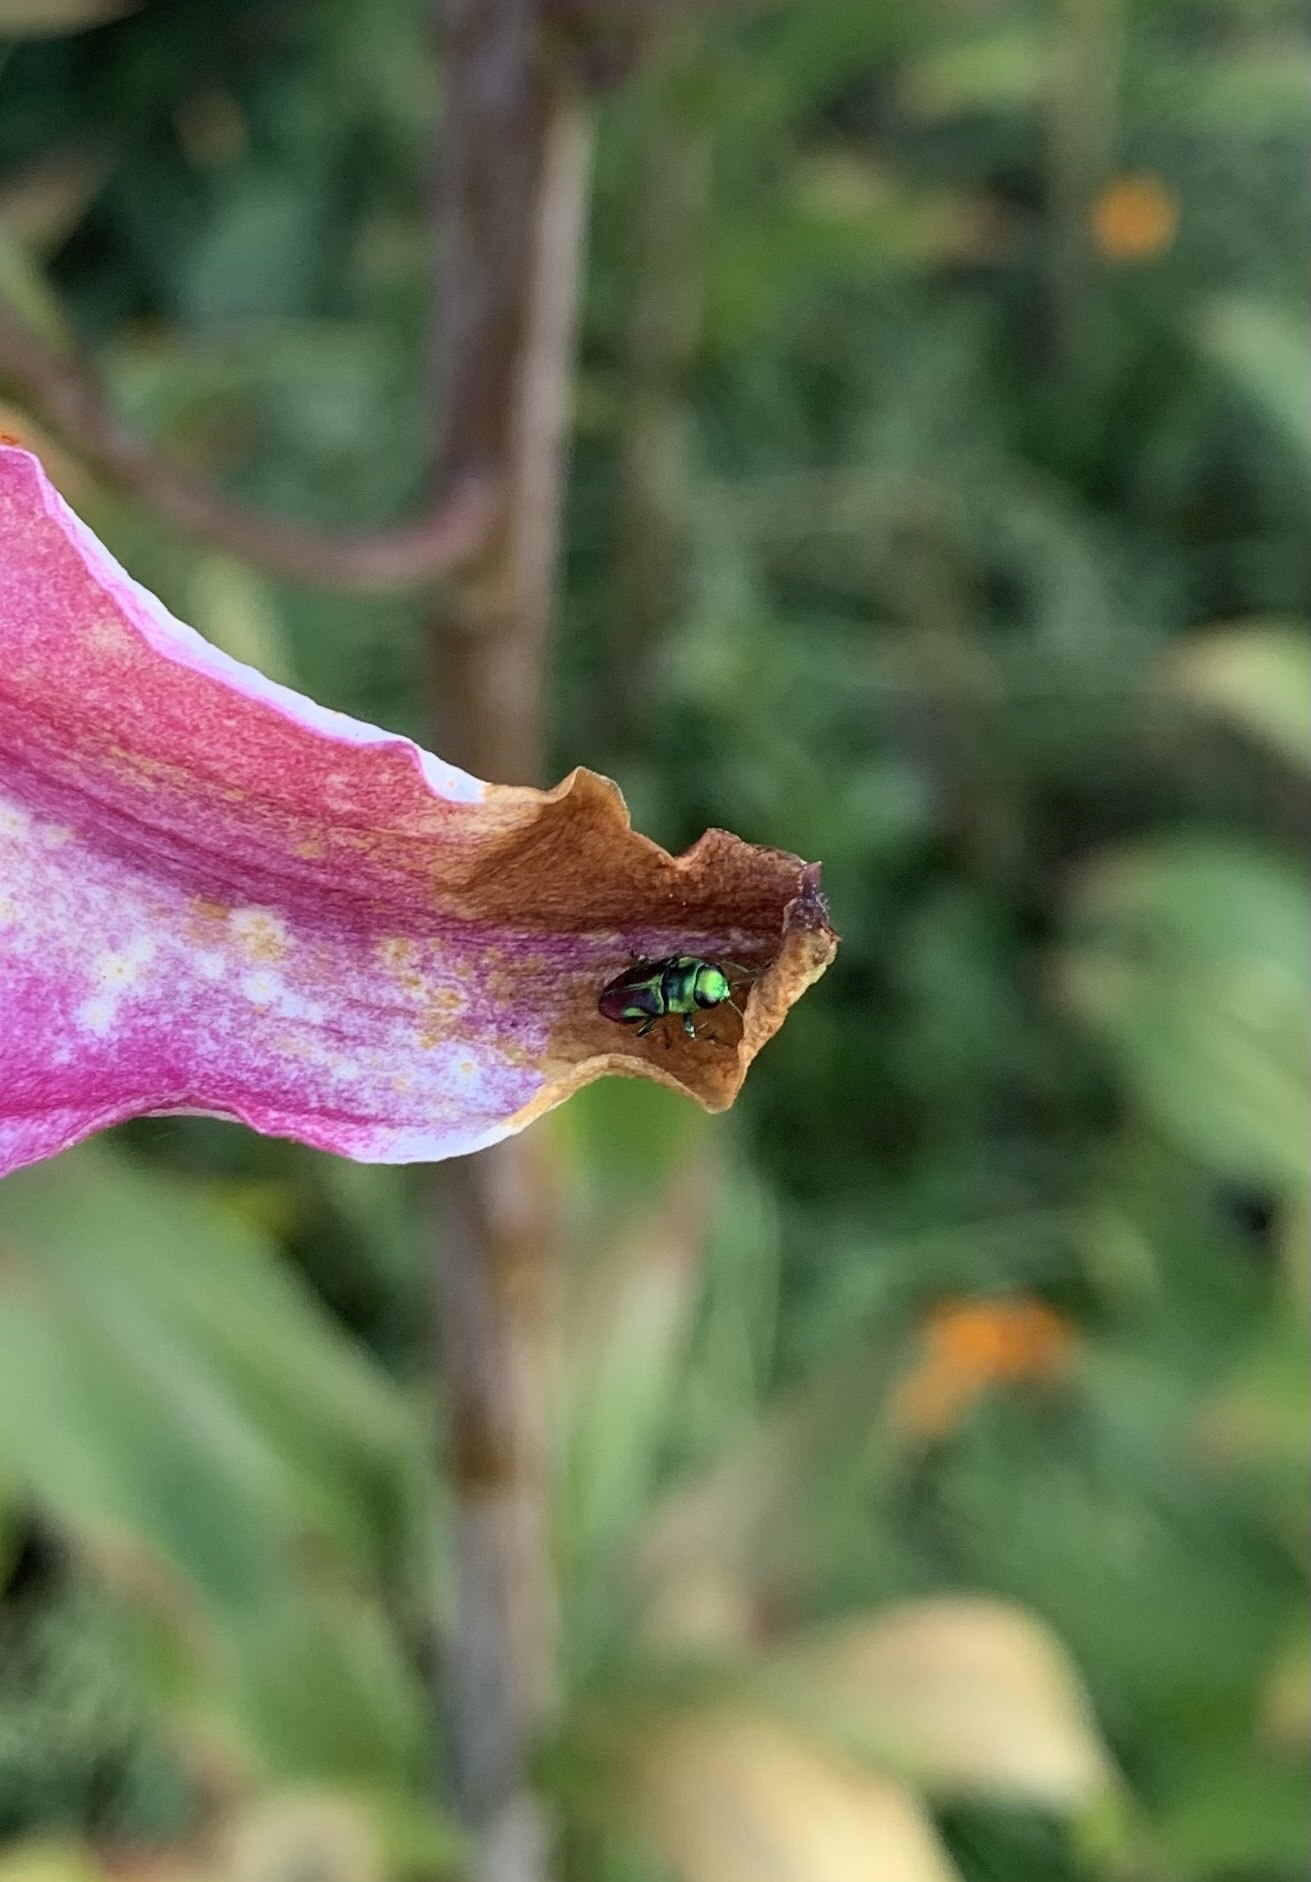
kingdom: Animalia
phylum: Arthropoda
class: Insecta
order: Coleoptera
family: Buprestidae
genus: Bilyaxia
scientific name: Bilyaxia concinna
